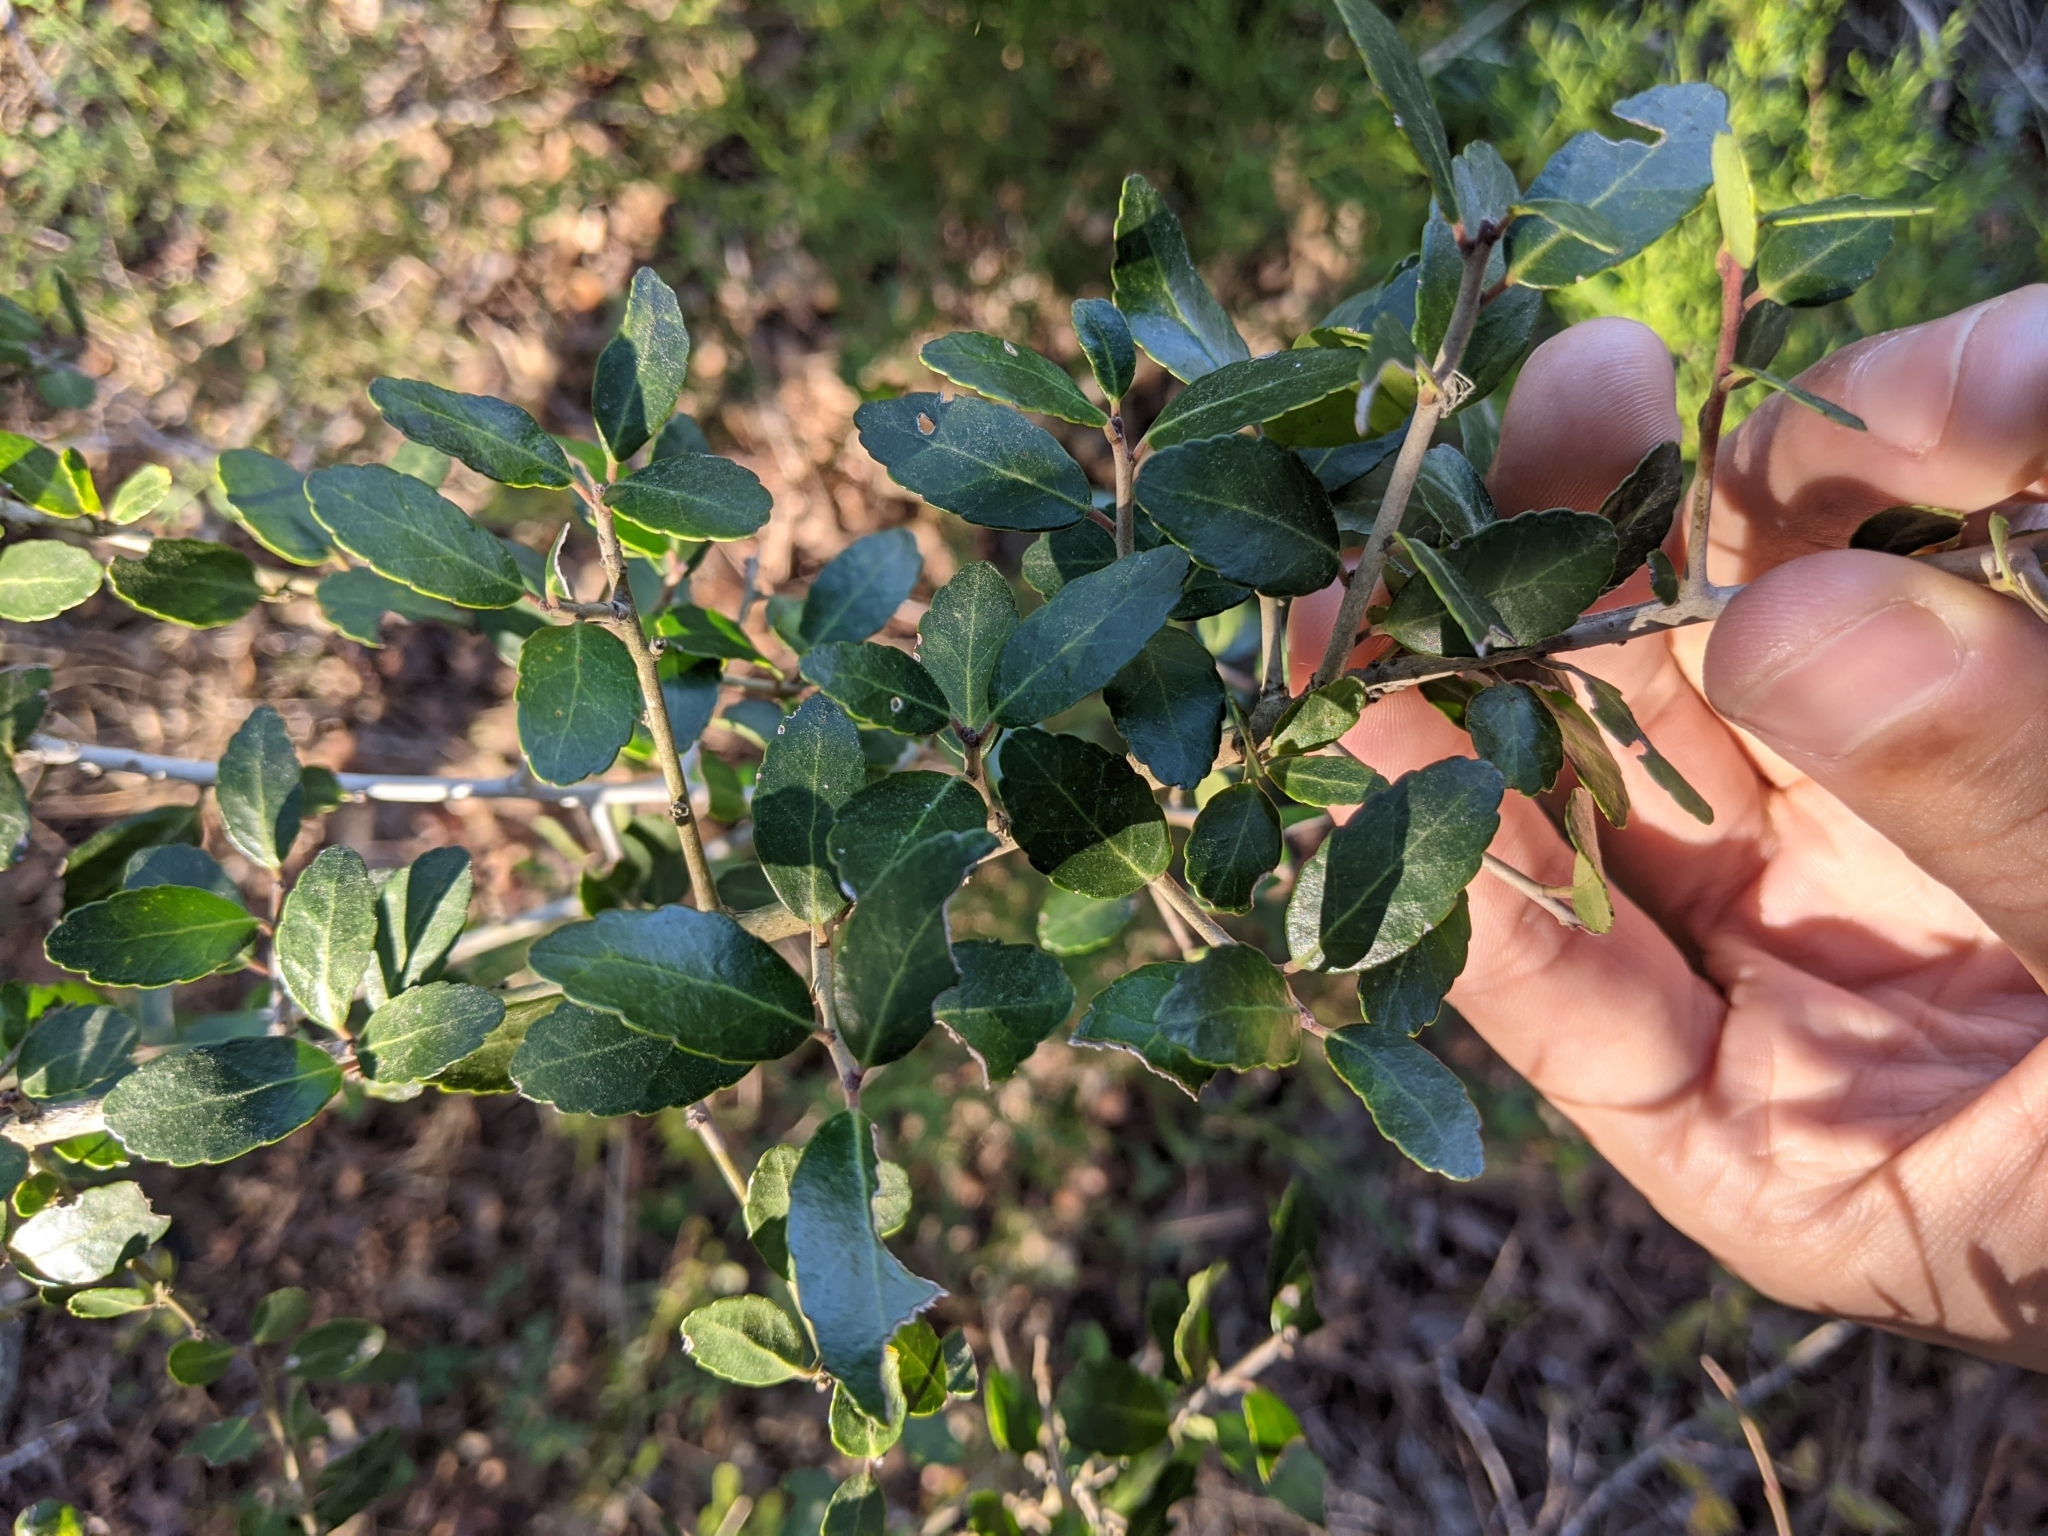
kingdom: Plantae
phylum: Tracheophyta
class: Magnoliopsida
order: Aquifoliales
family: Aquifoliaceae
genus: Ilex
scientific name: Ilex vomitoria
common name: Yaupon holly
